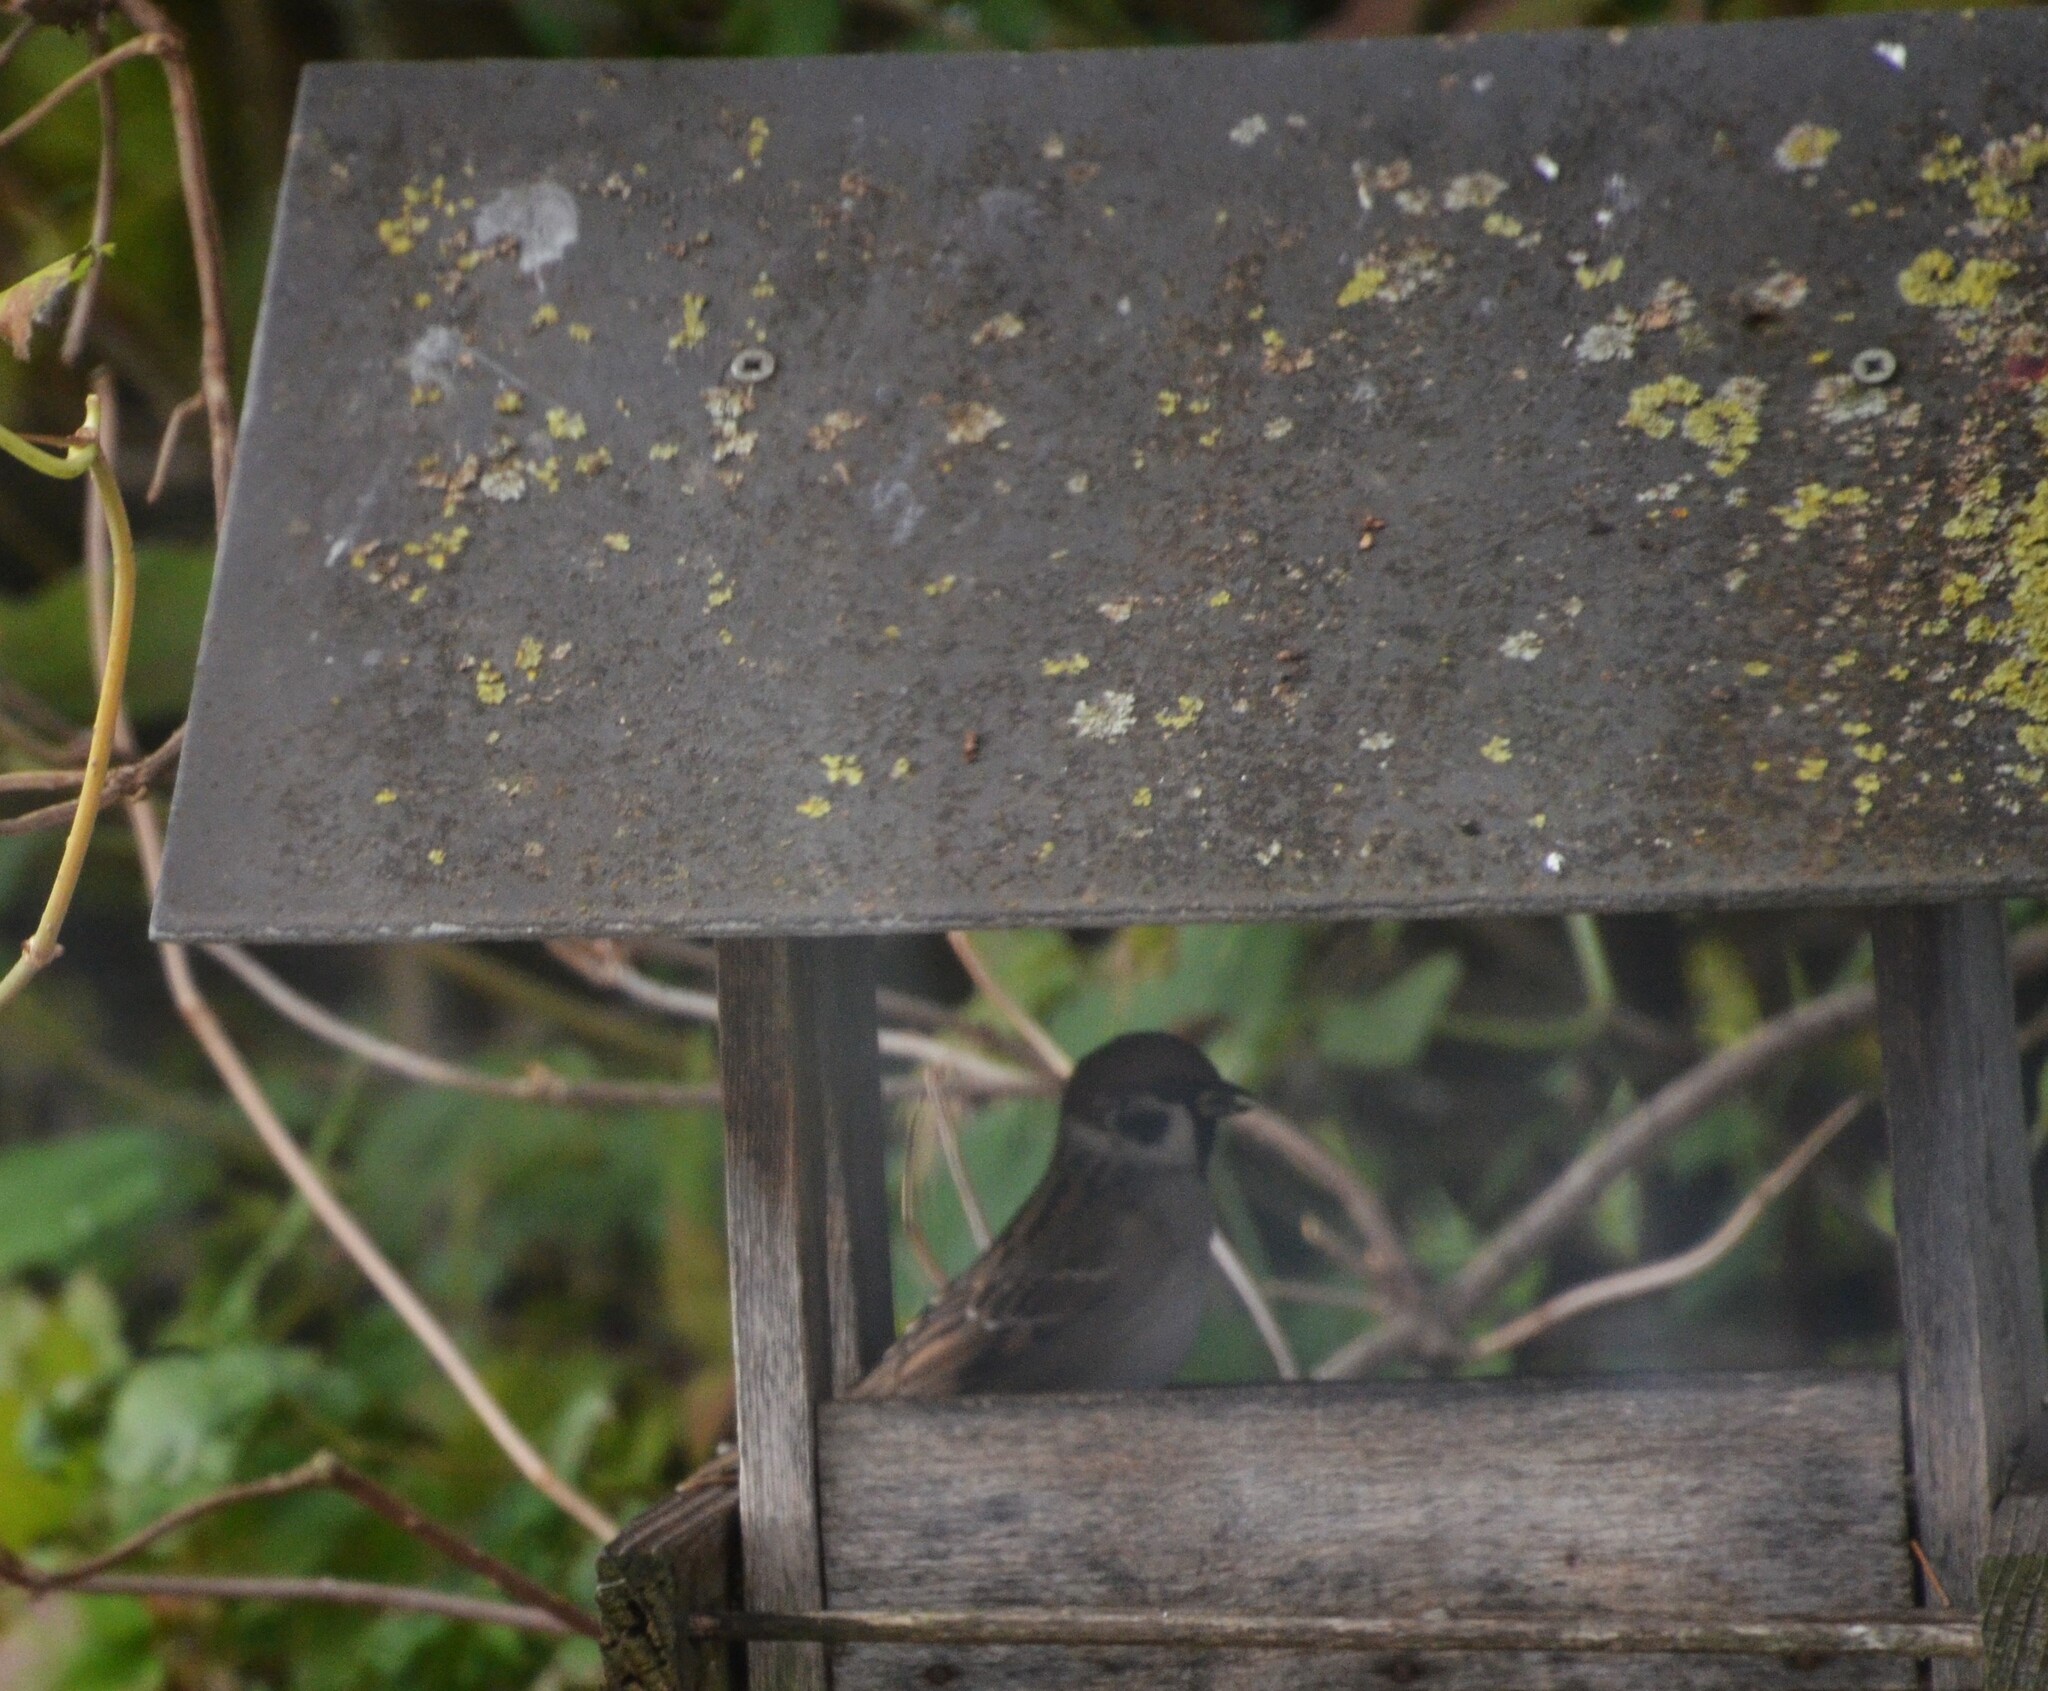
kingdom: Animalia
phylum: Chordata
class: Aves
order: Passeriformes
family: Passeridae
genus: Passer
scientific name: Passer montanus
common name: Eurasian tree sparrow
